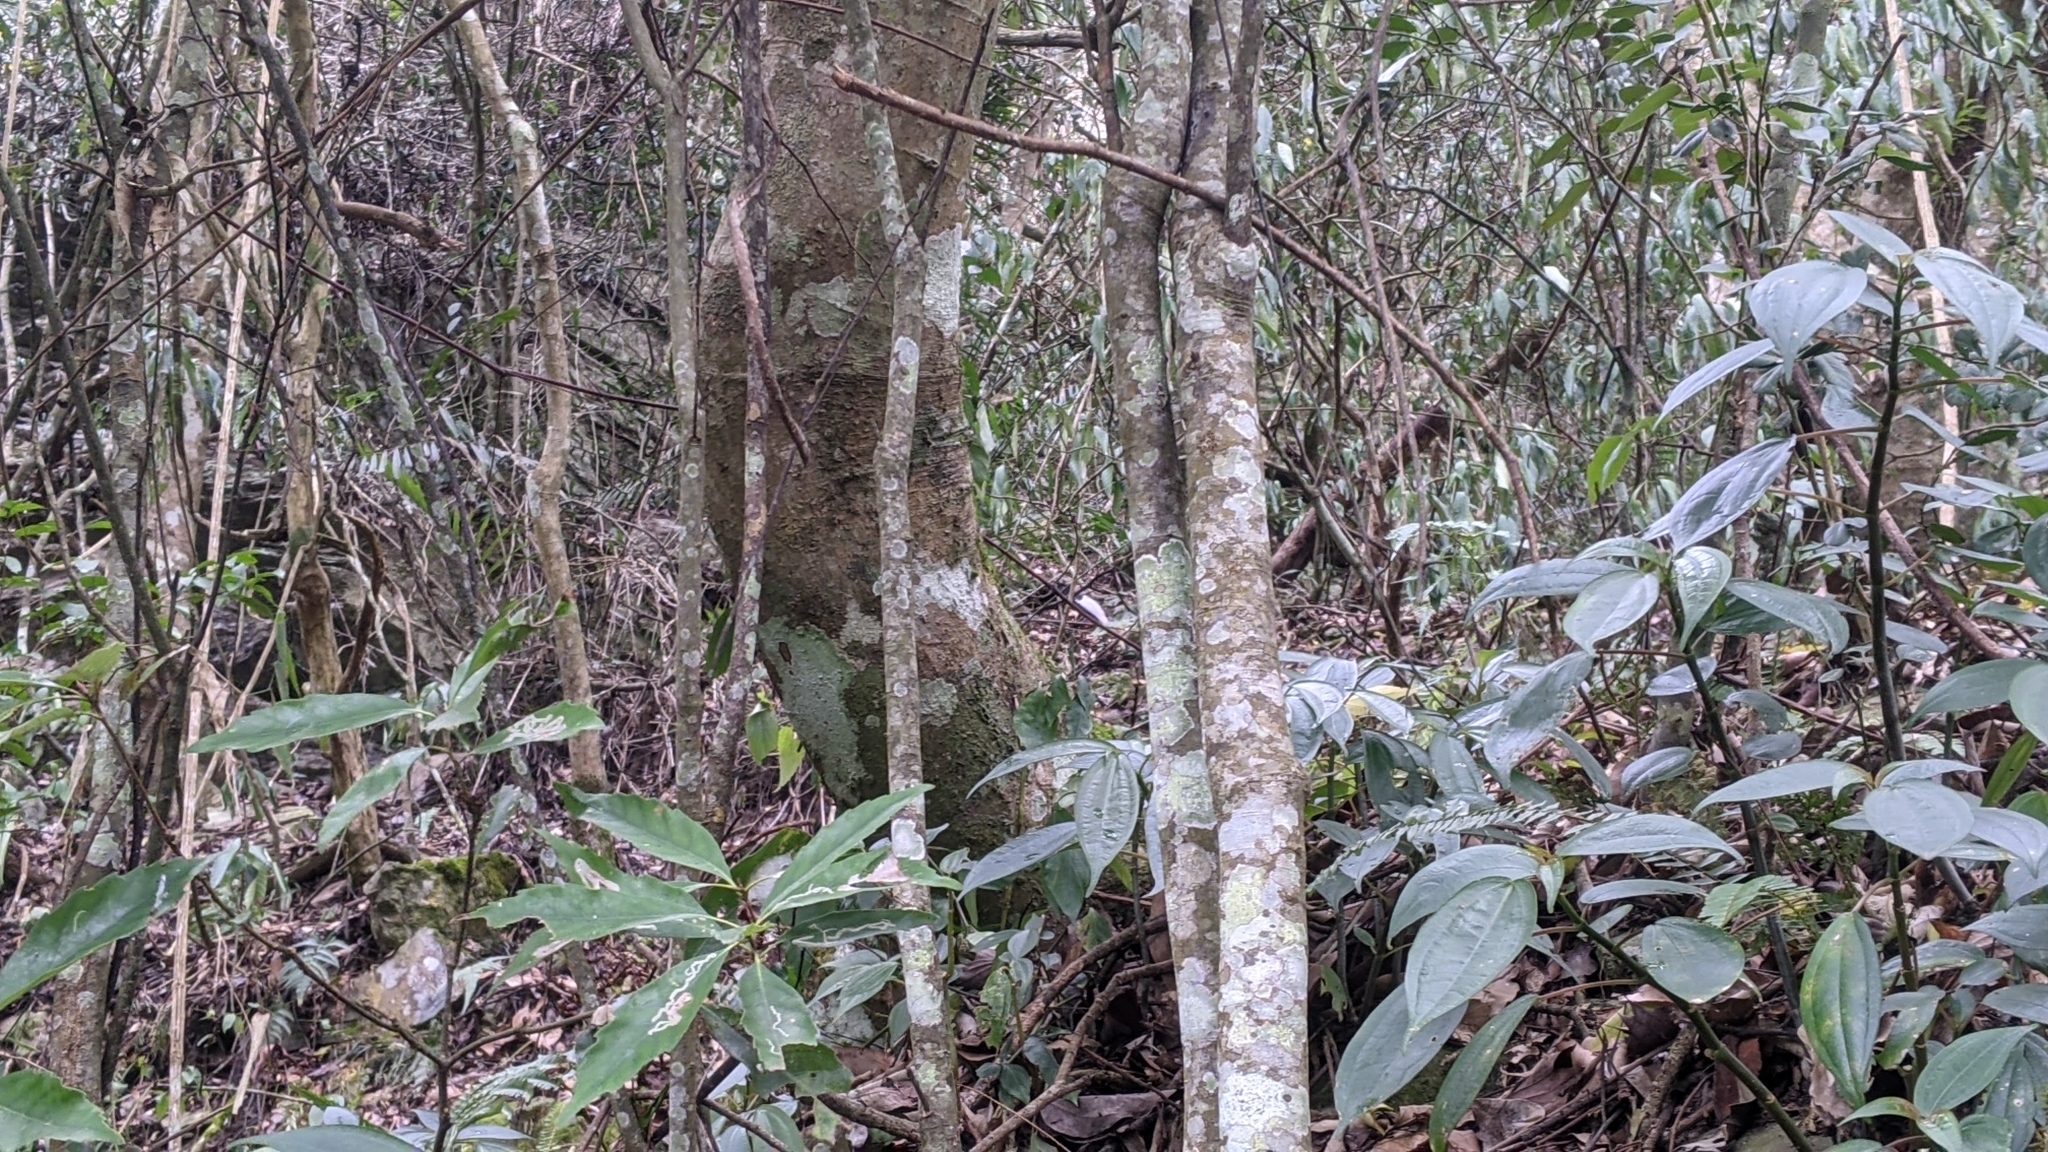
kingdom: Animalia
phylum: Chordata
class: Aves
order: Galliformes
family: Phasianidae
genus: Lophura
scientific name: Lophura swinhoii
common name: Swinhoe's pheasant
